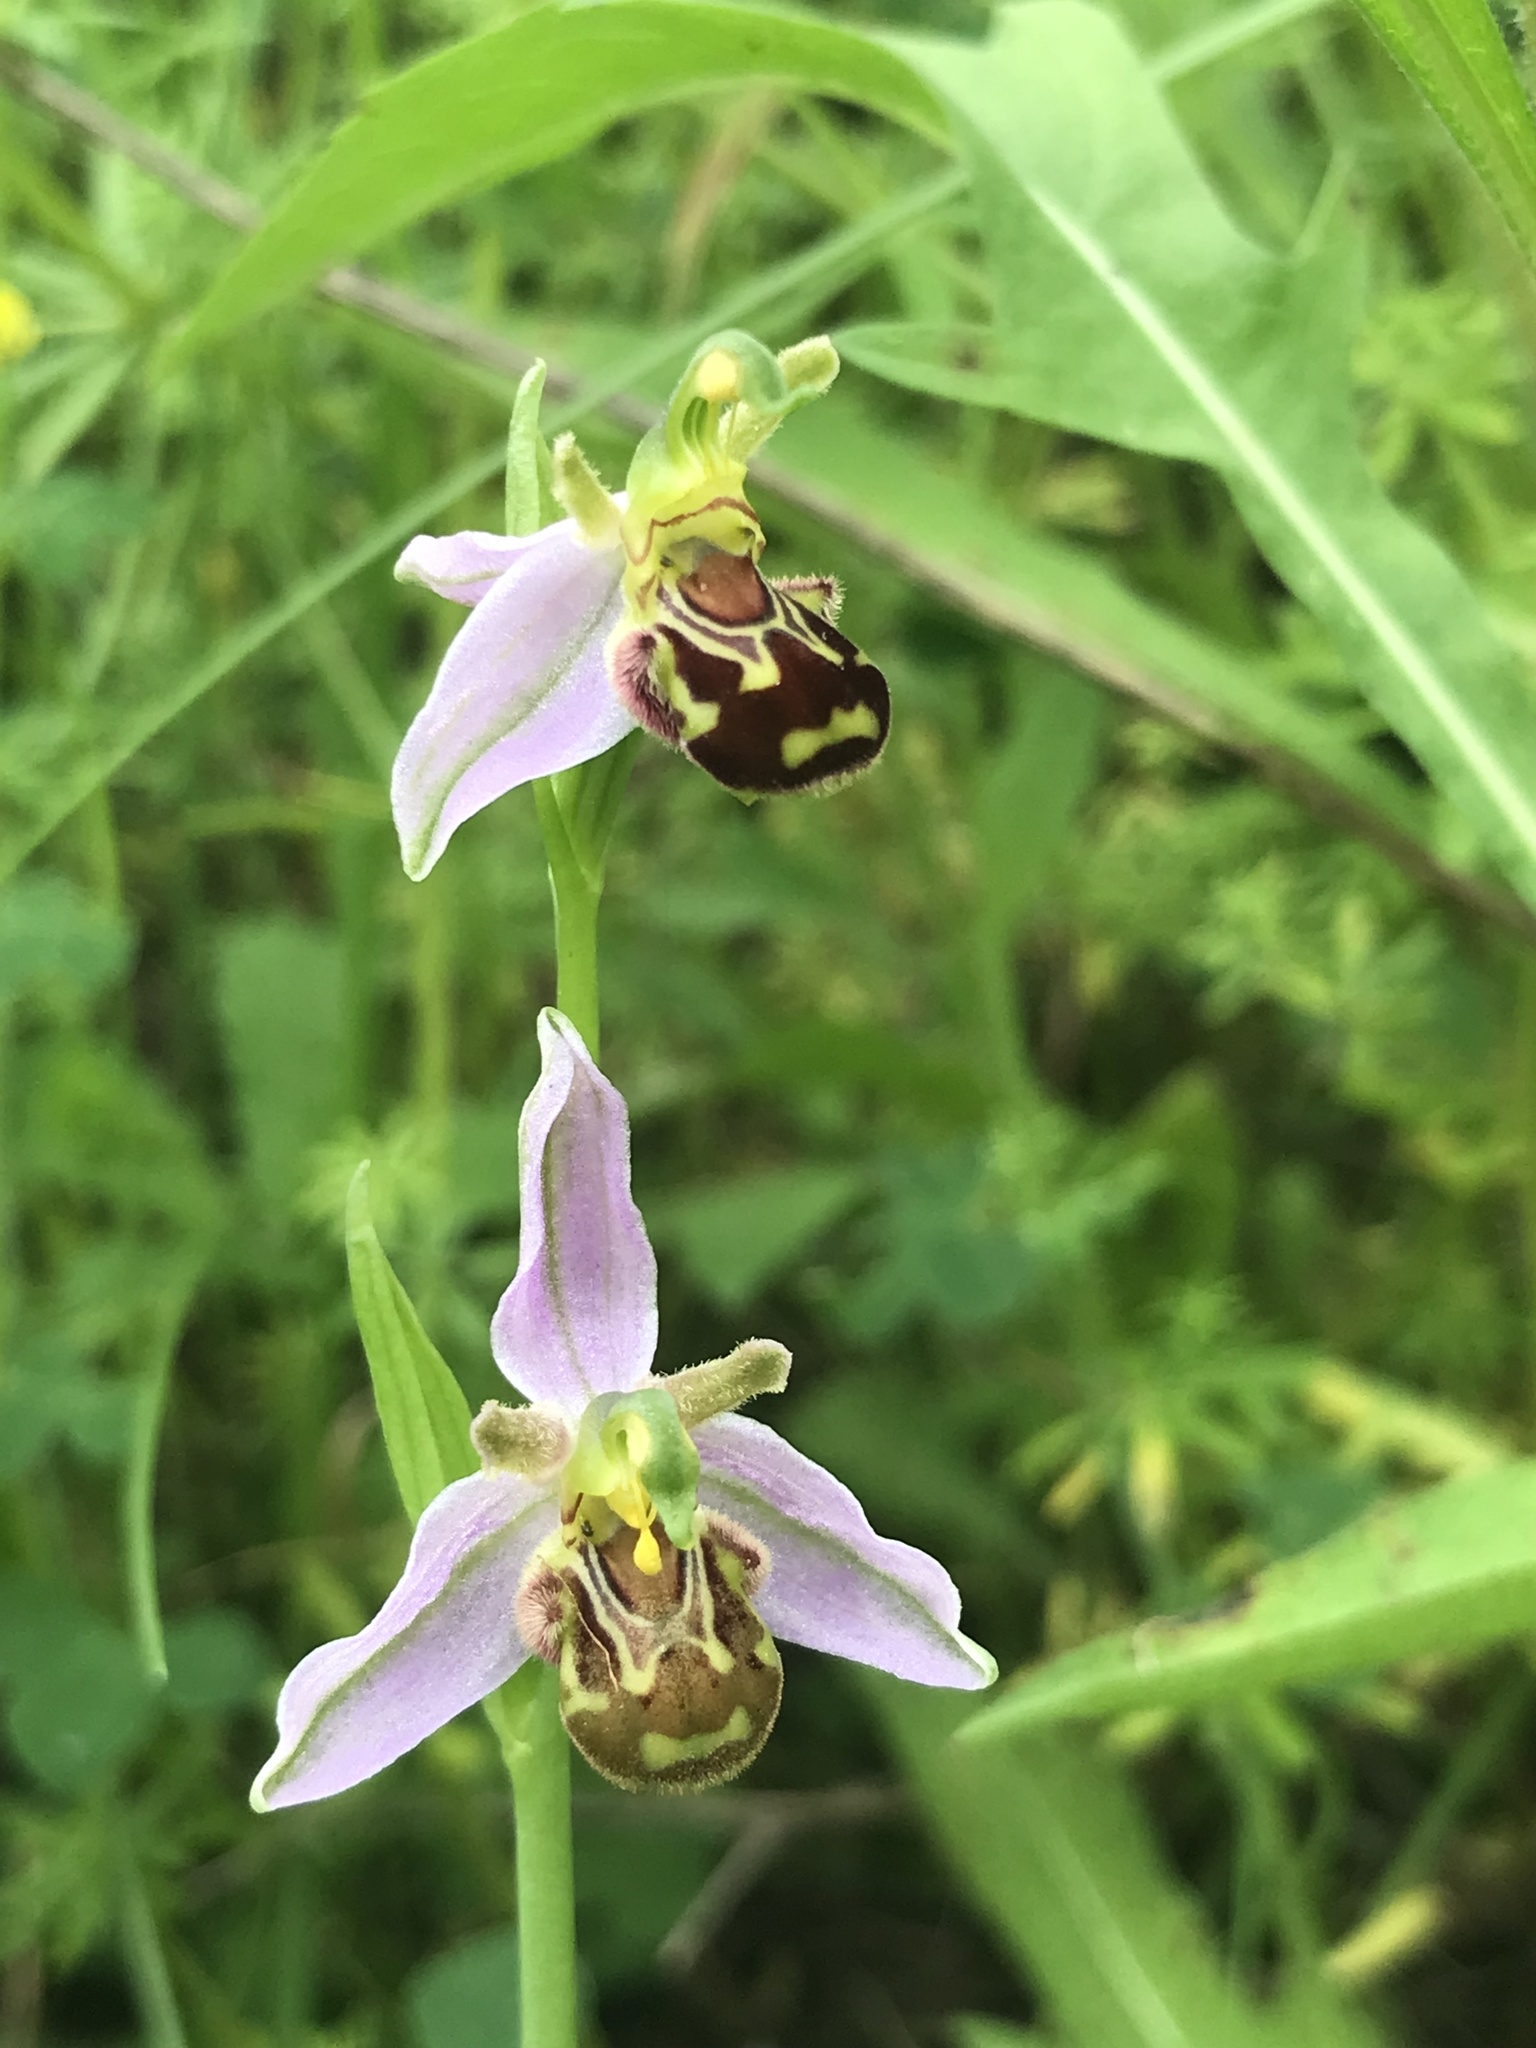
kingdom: Plantae
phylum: Tracheophyta
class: Liliopsida
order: Asparagales
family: Orchidaceae
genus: Ophrys
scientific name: Ophrys apifera
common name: Bee orchid
